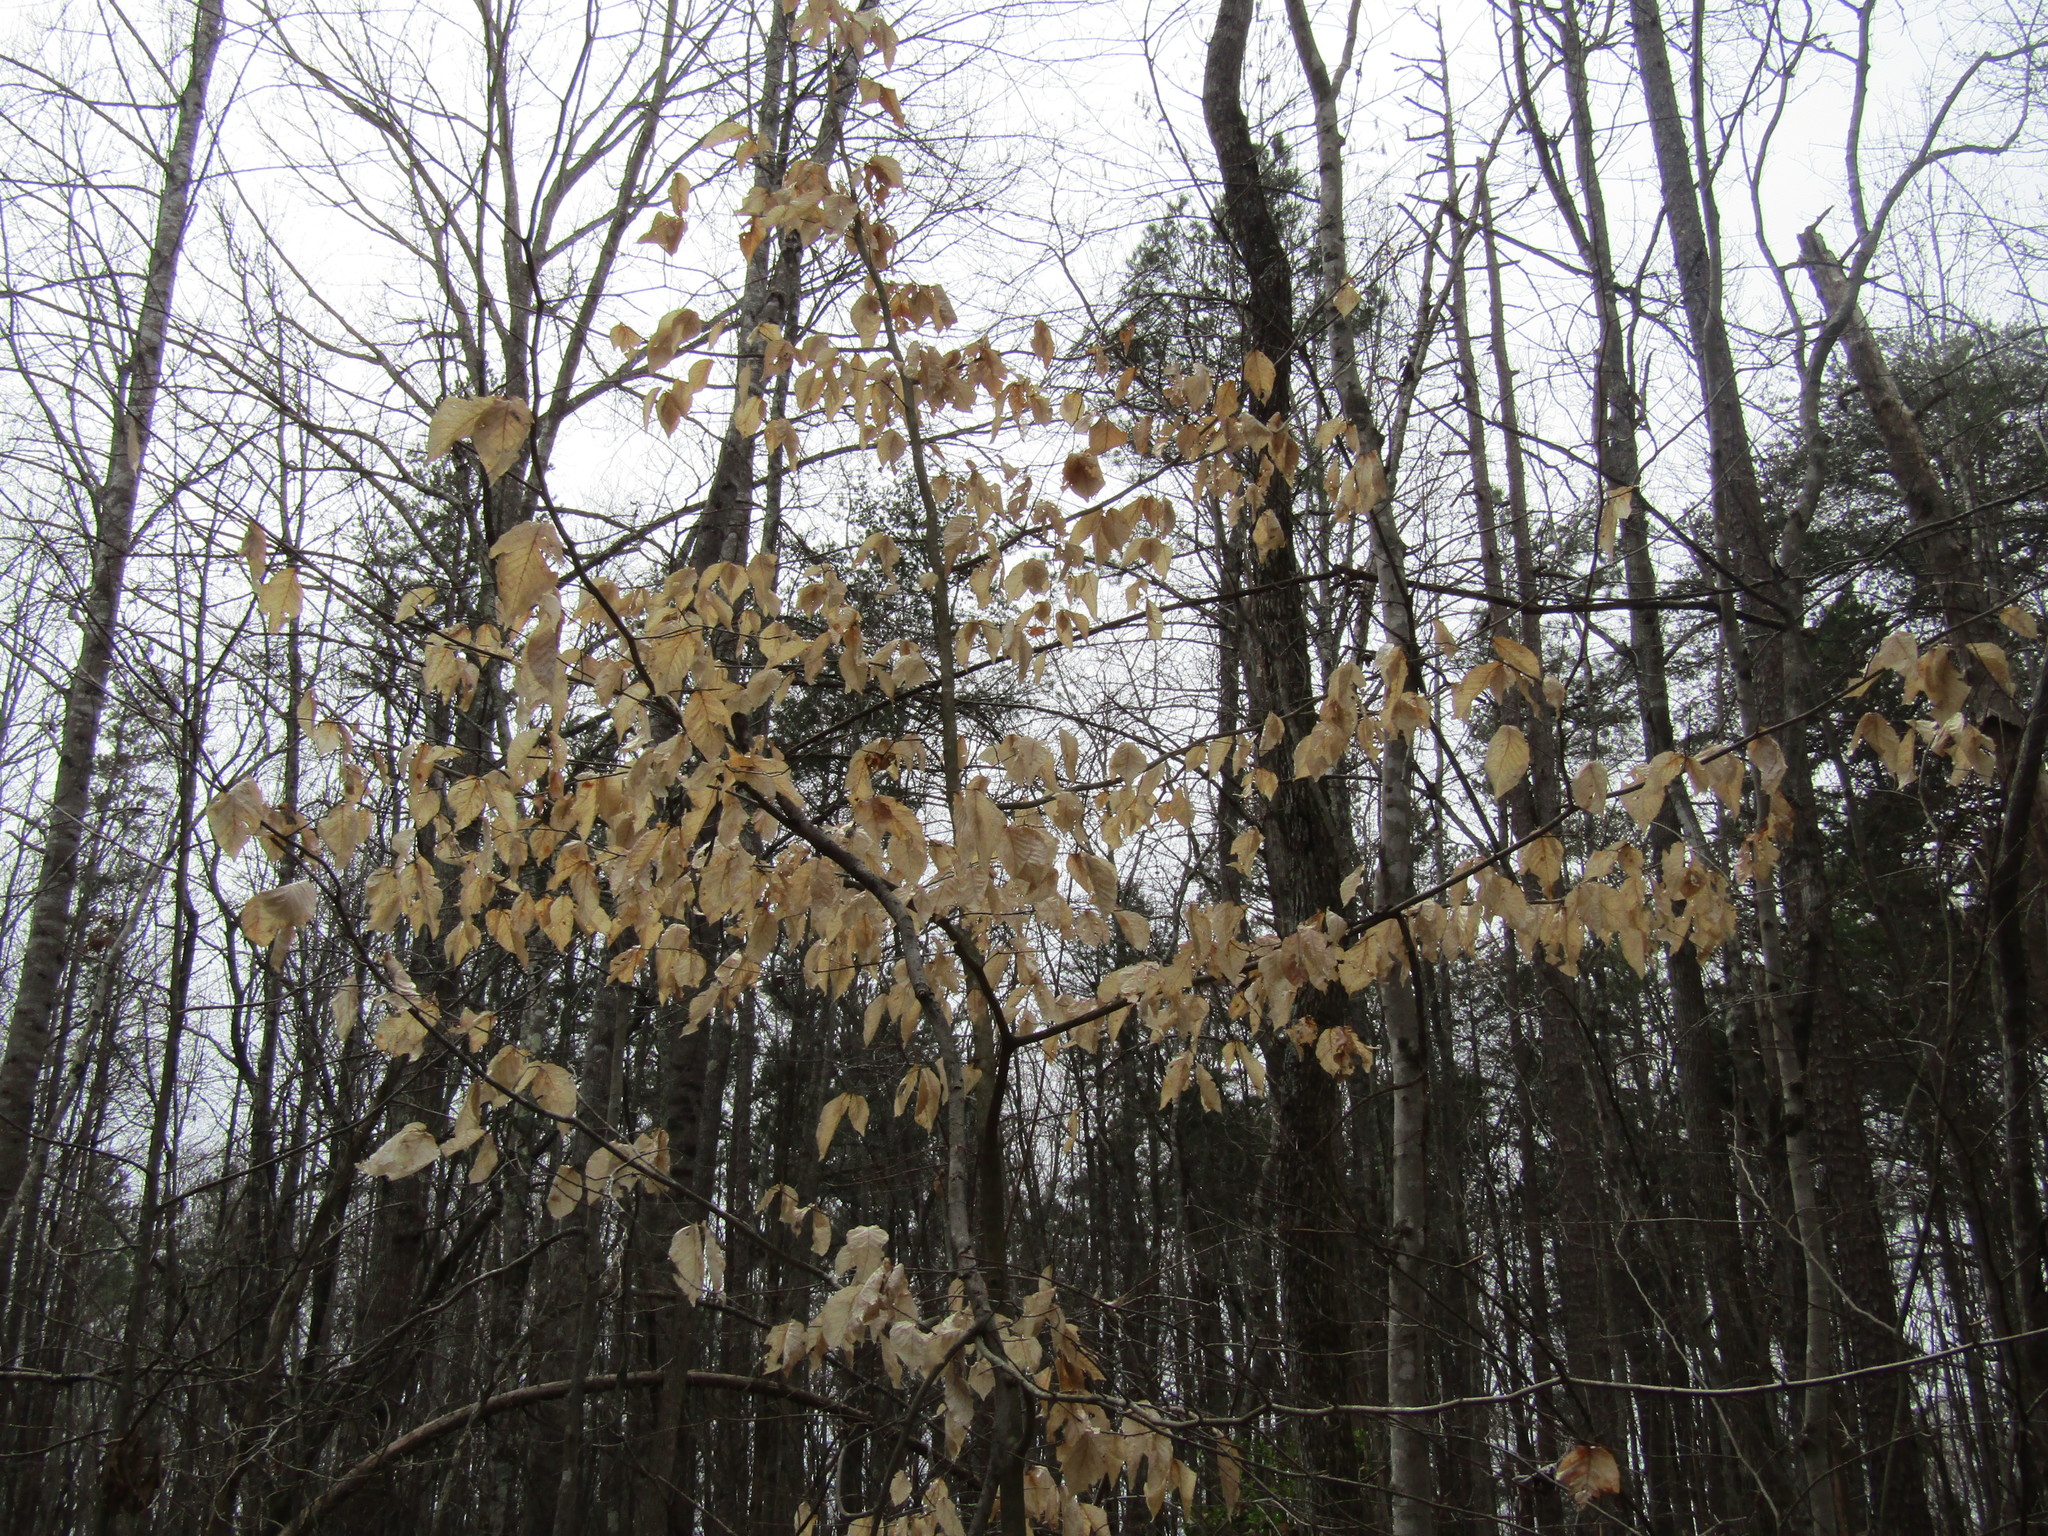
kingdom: Plantae
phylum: Tracheophyta
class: Magnoliopsida
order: Fagales
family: Fagaceae
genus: Fagus
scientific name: Fagus grandifolia
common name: American beech
